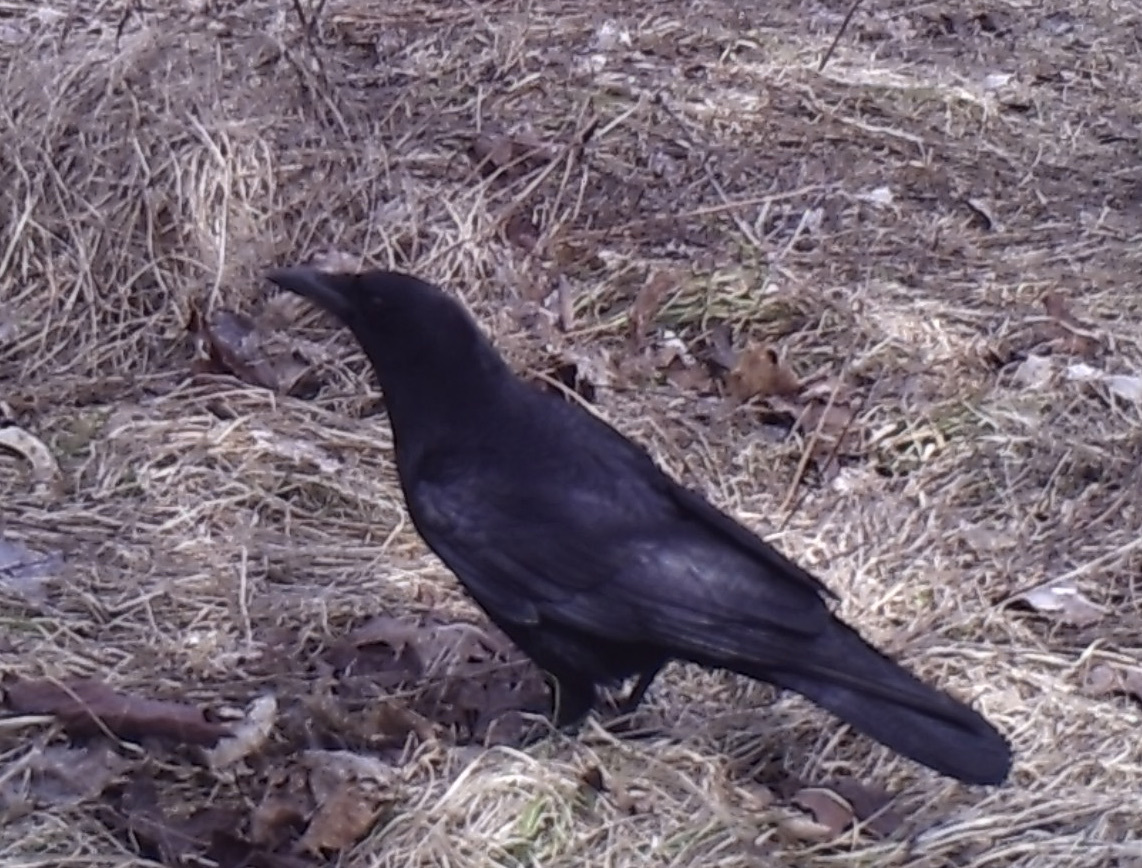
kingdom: Animalia
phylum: Chordata
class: Aves
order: Passeriformes
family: Corvidae
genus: Corvus
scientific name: Corvus brachyrhynchos
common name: American crow
